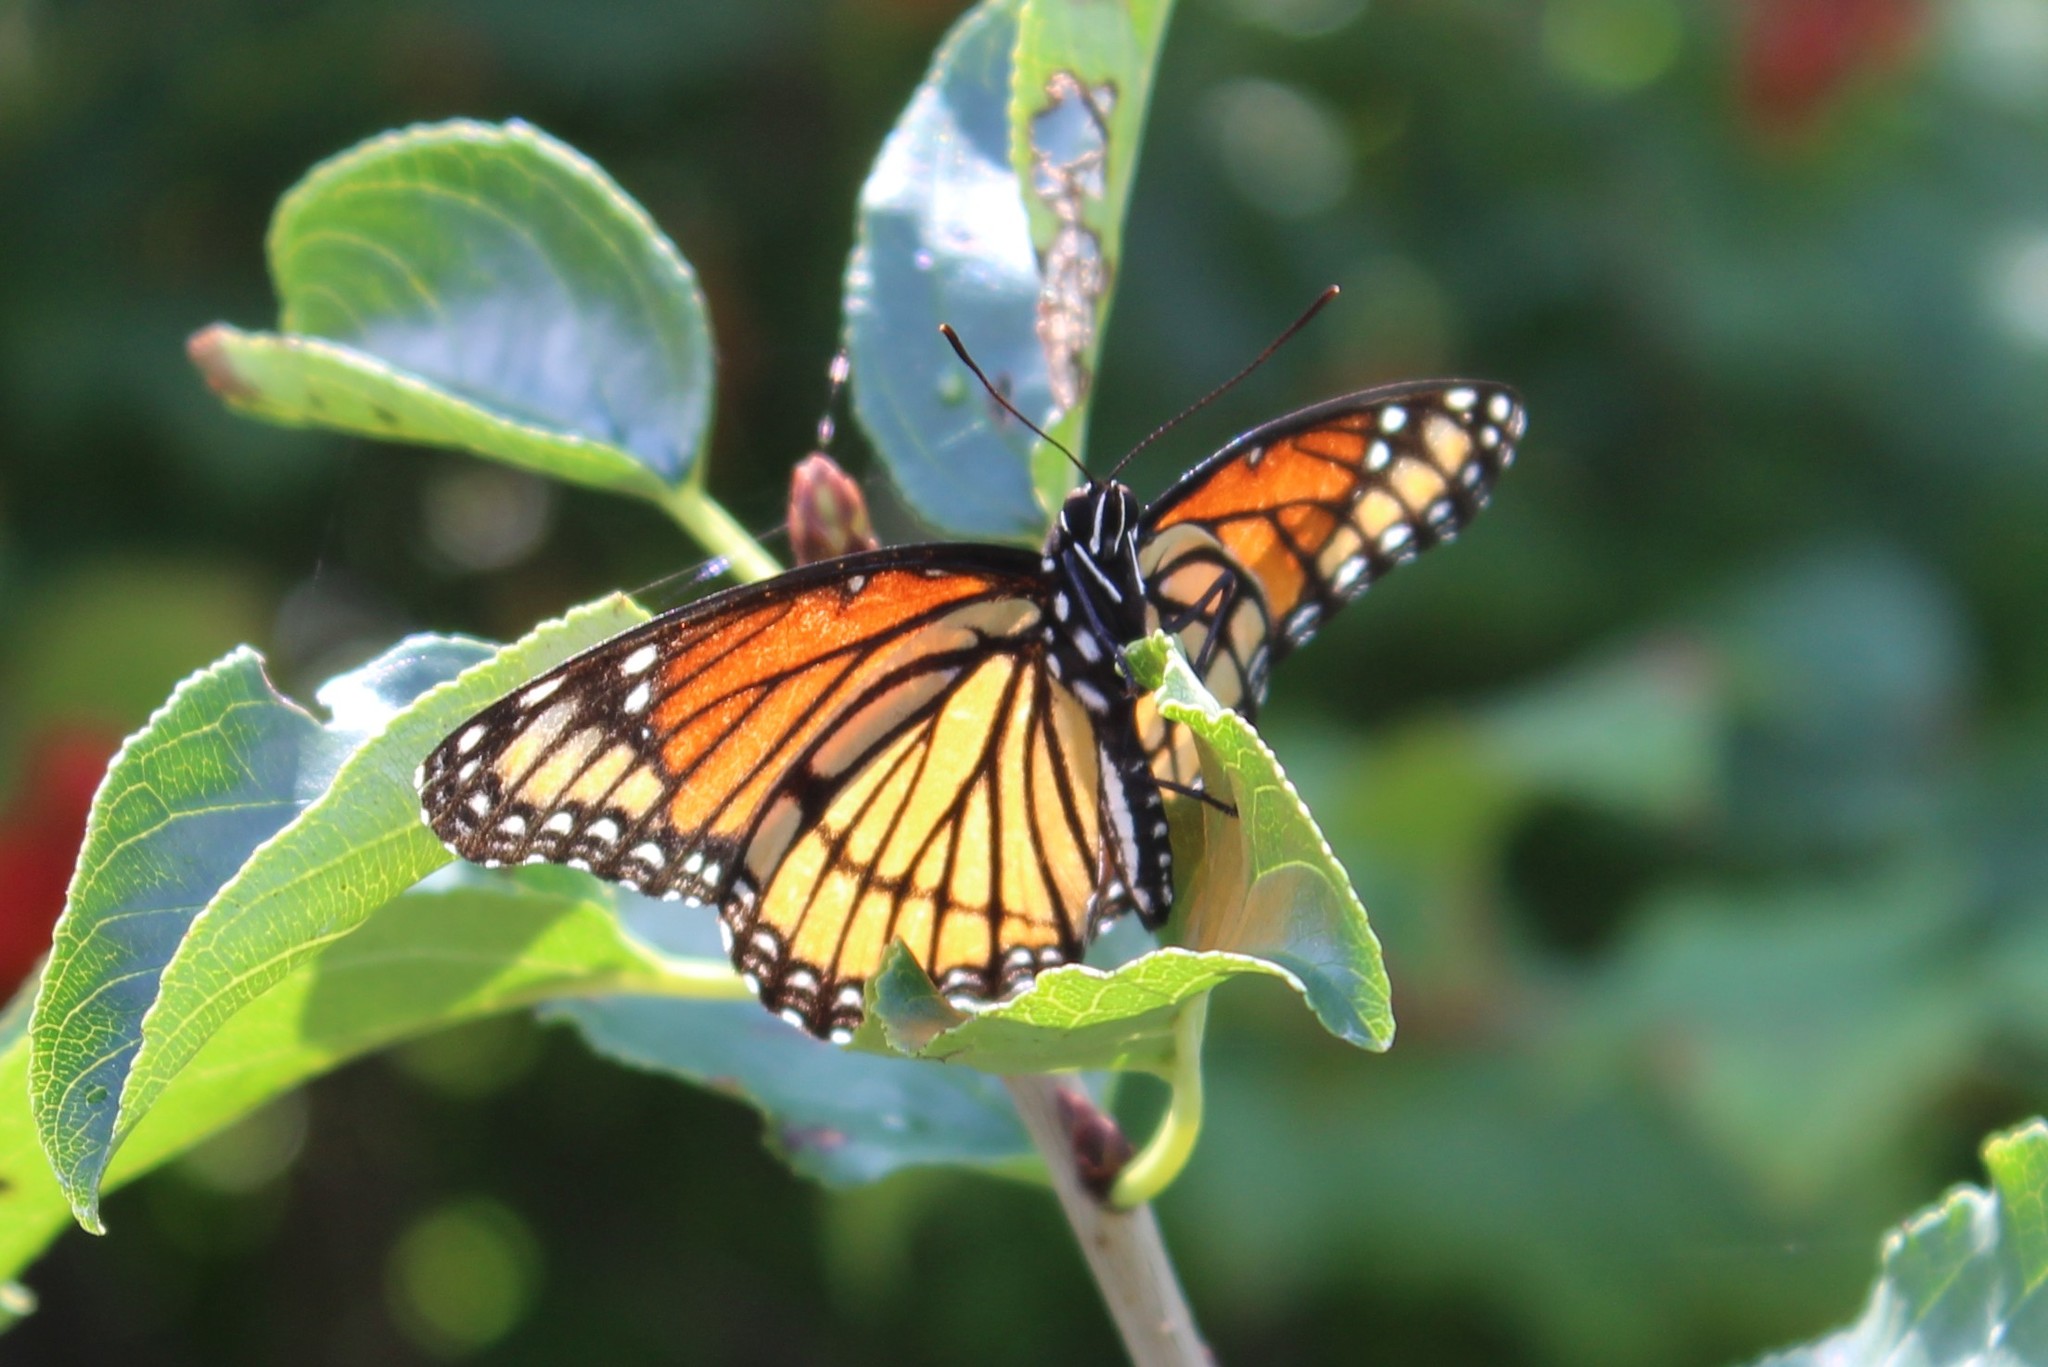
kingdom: Animalia
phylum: Arthropoda
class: Insecta
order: Lepidoptera
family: Nymphalidae
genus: Limenitis
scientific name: Limenitis archippus
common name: Viceroy
